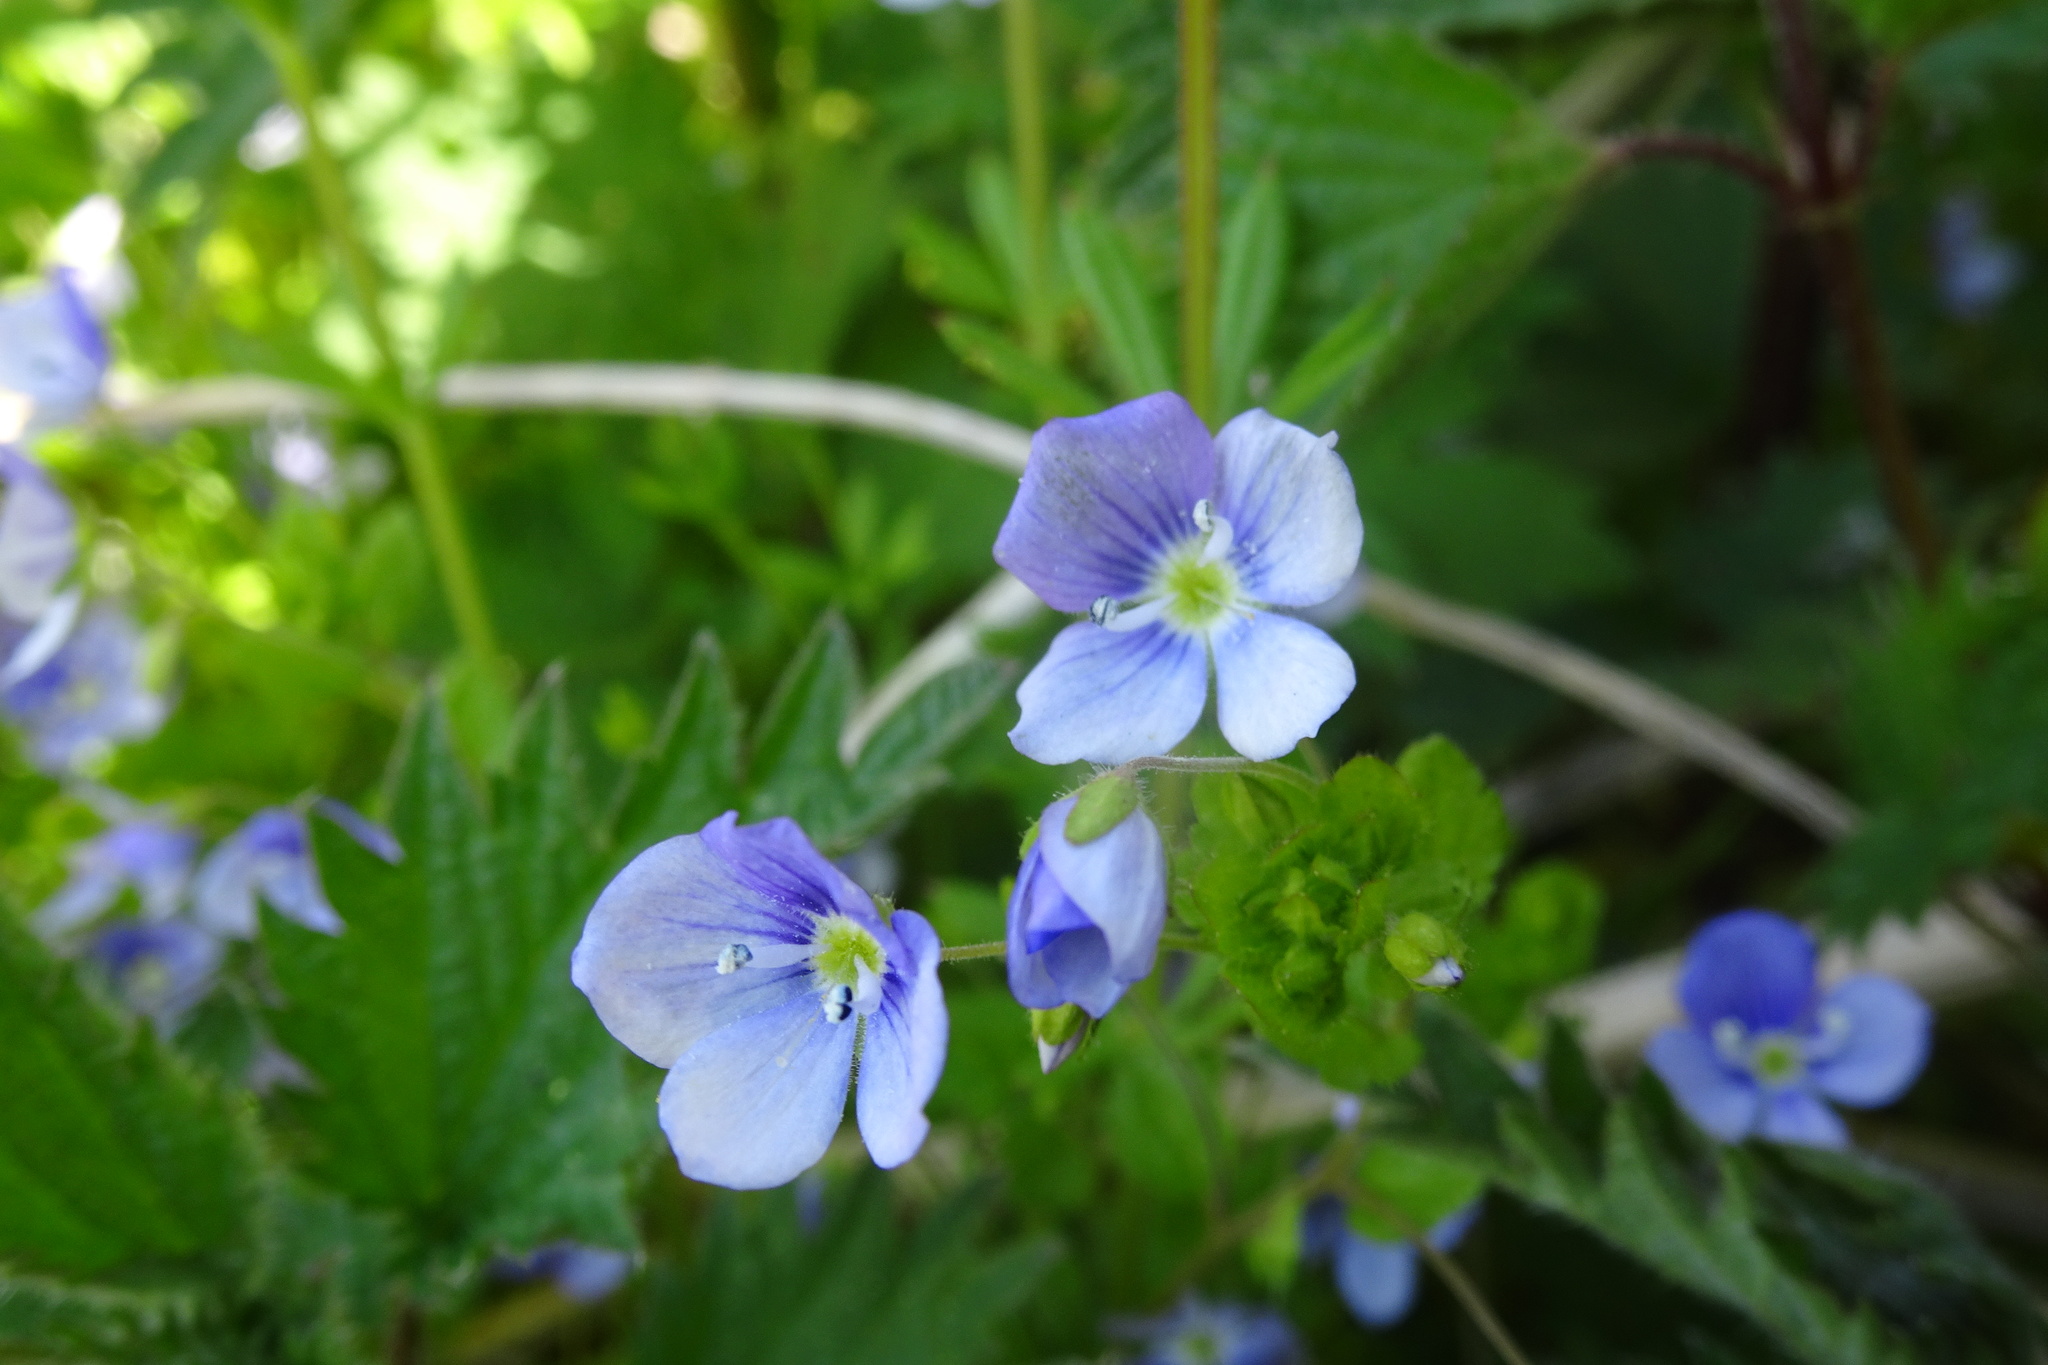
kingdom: Plantae
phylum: Tracheophyta
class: Magnoliopsida
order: Lamiales
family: Plantaginaceae
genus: Veronica
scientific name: Veronica filiformis
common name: Slender speedwell
